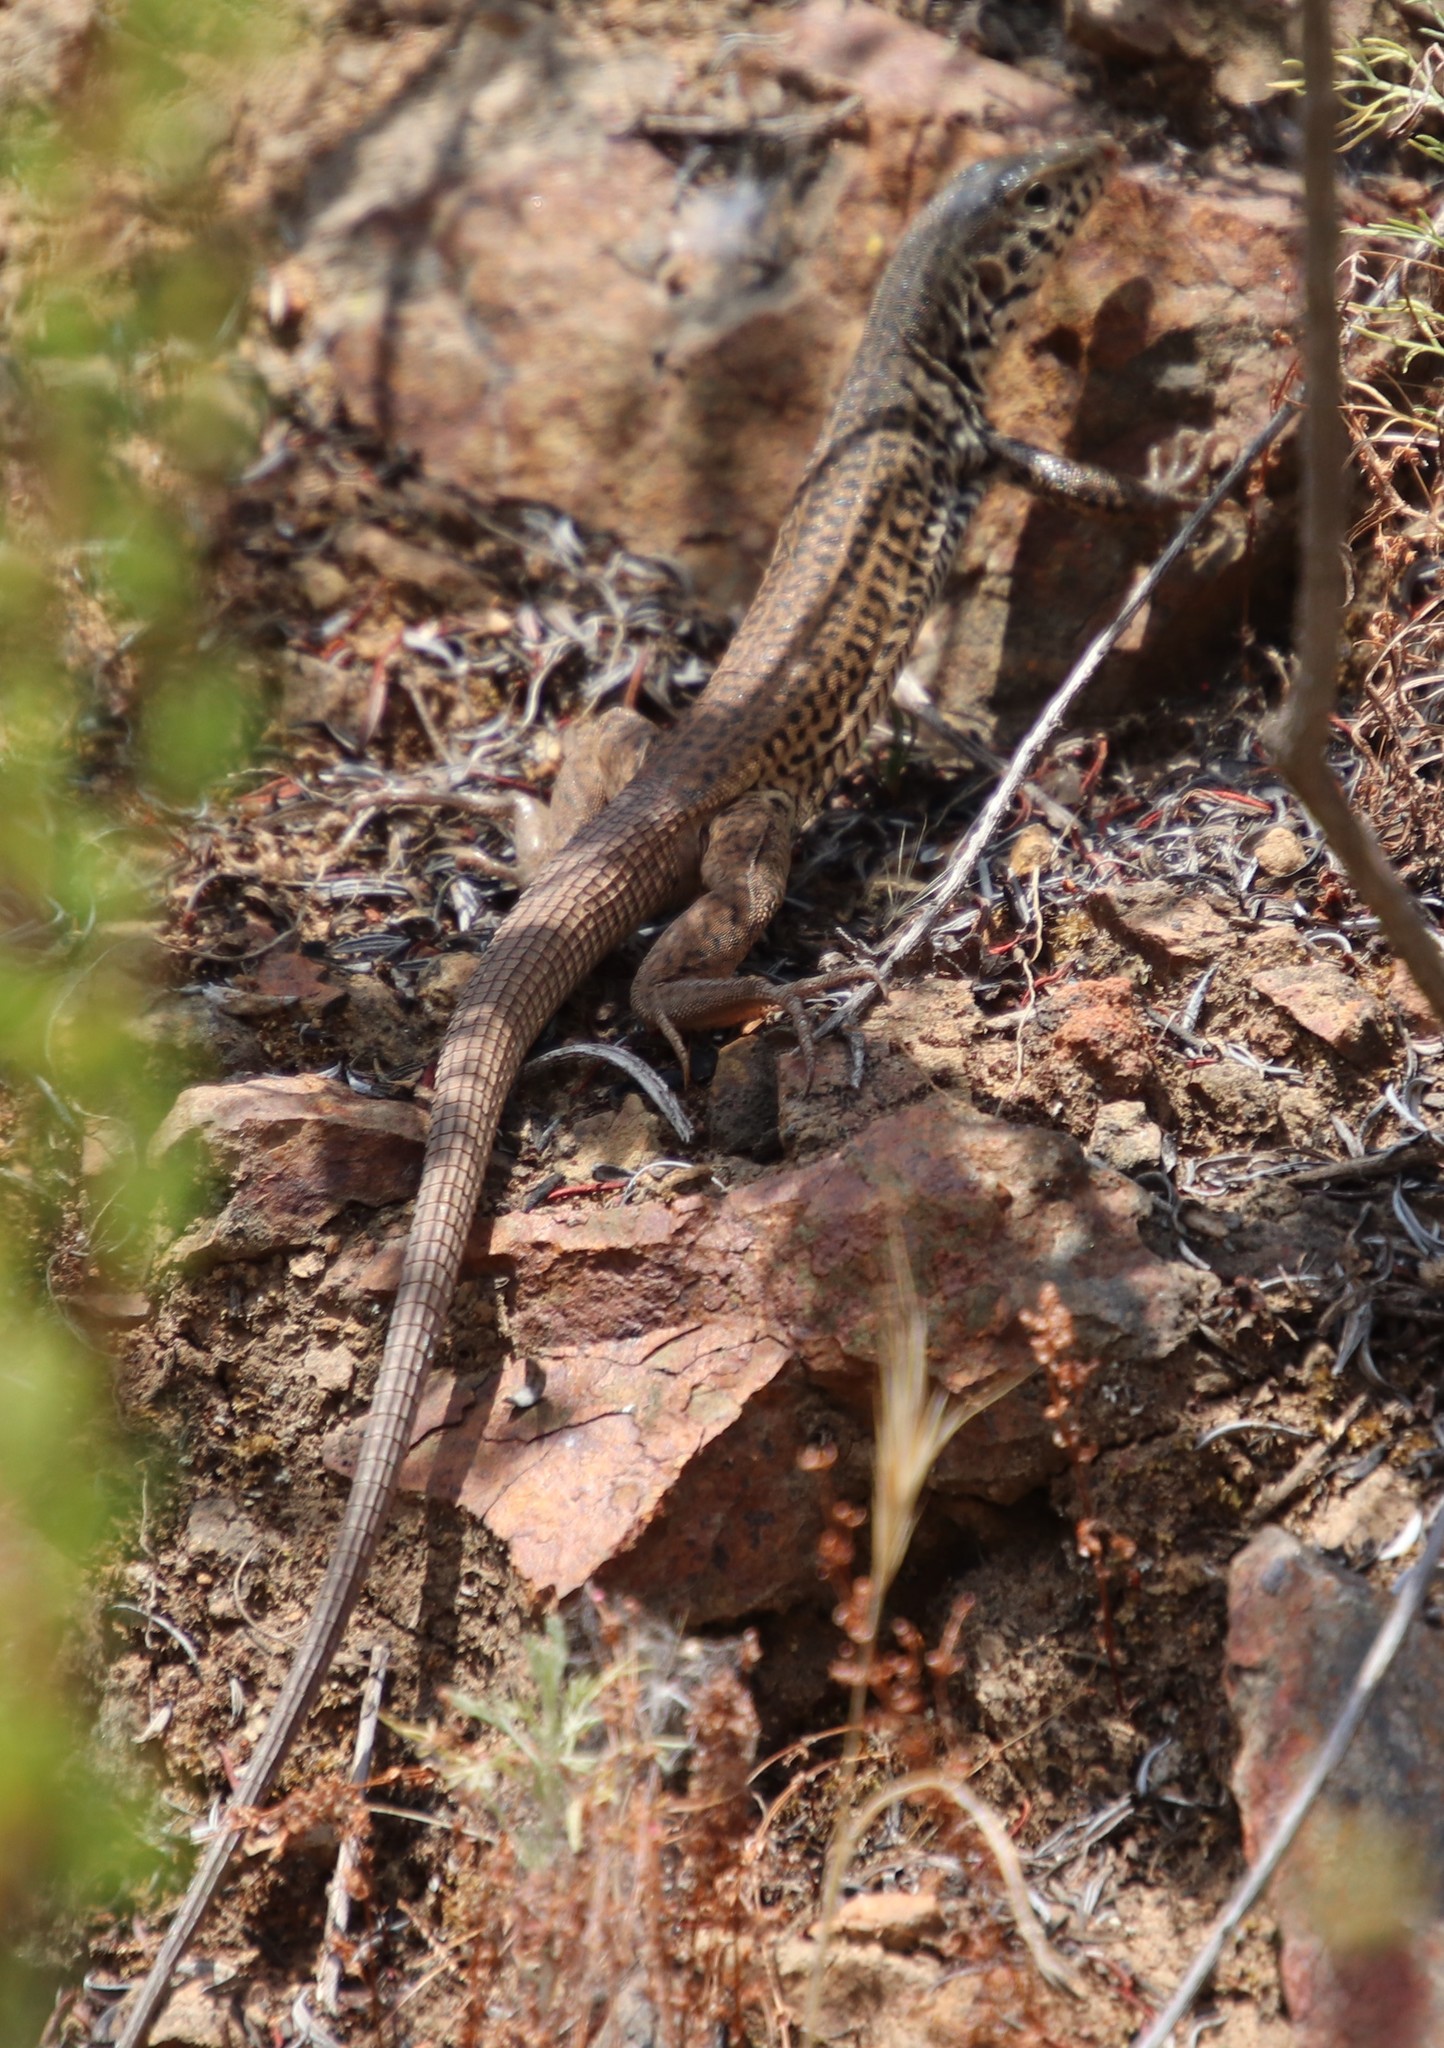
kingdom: Animalia
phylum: Chordata
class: Squamata
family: Teiidae
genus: Aspidoscelis
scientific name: Aspidoscelis tigris
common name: Tiger whiptail
